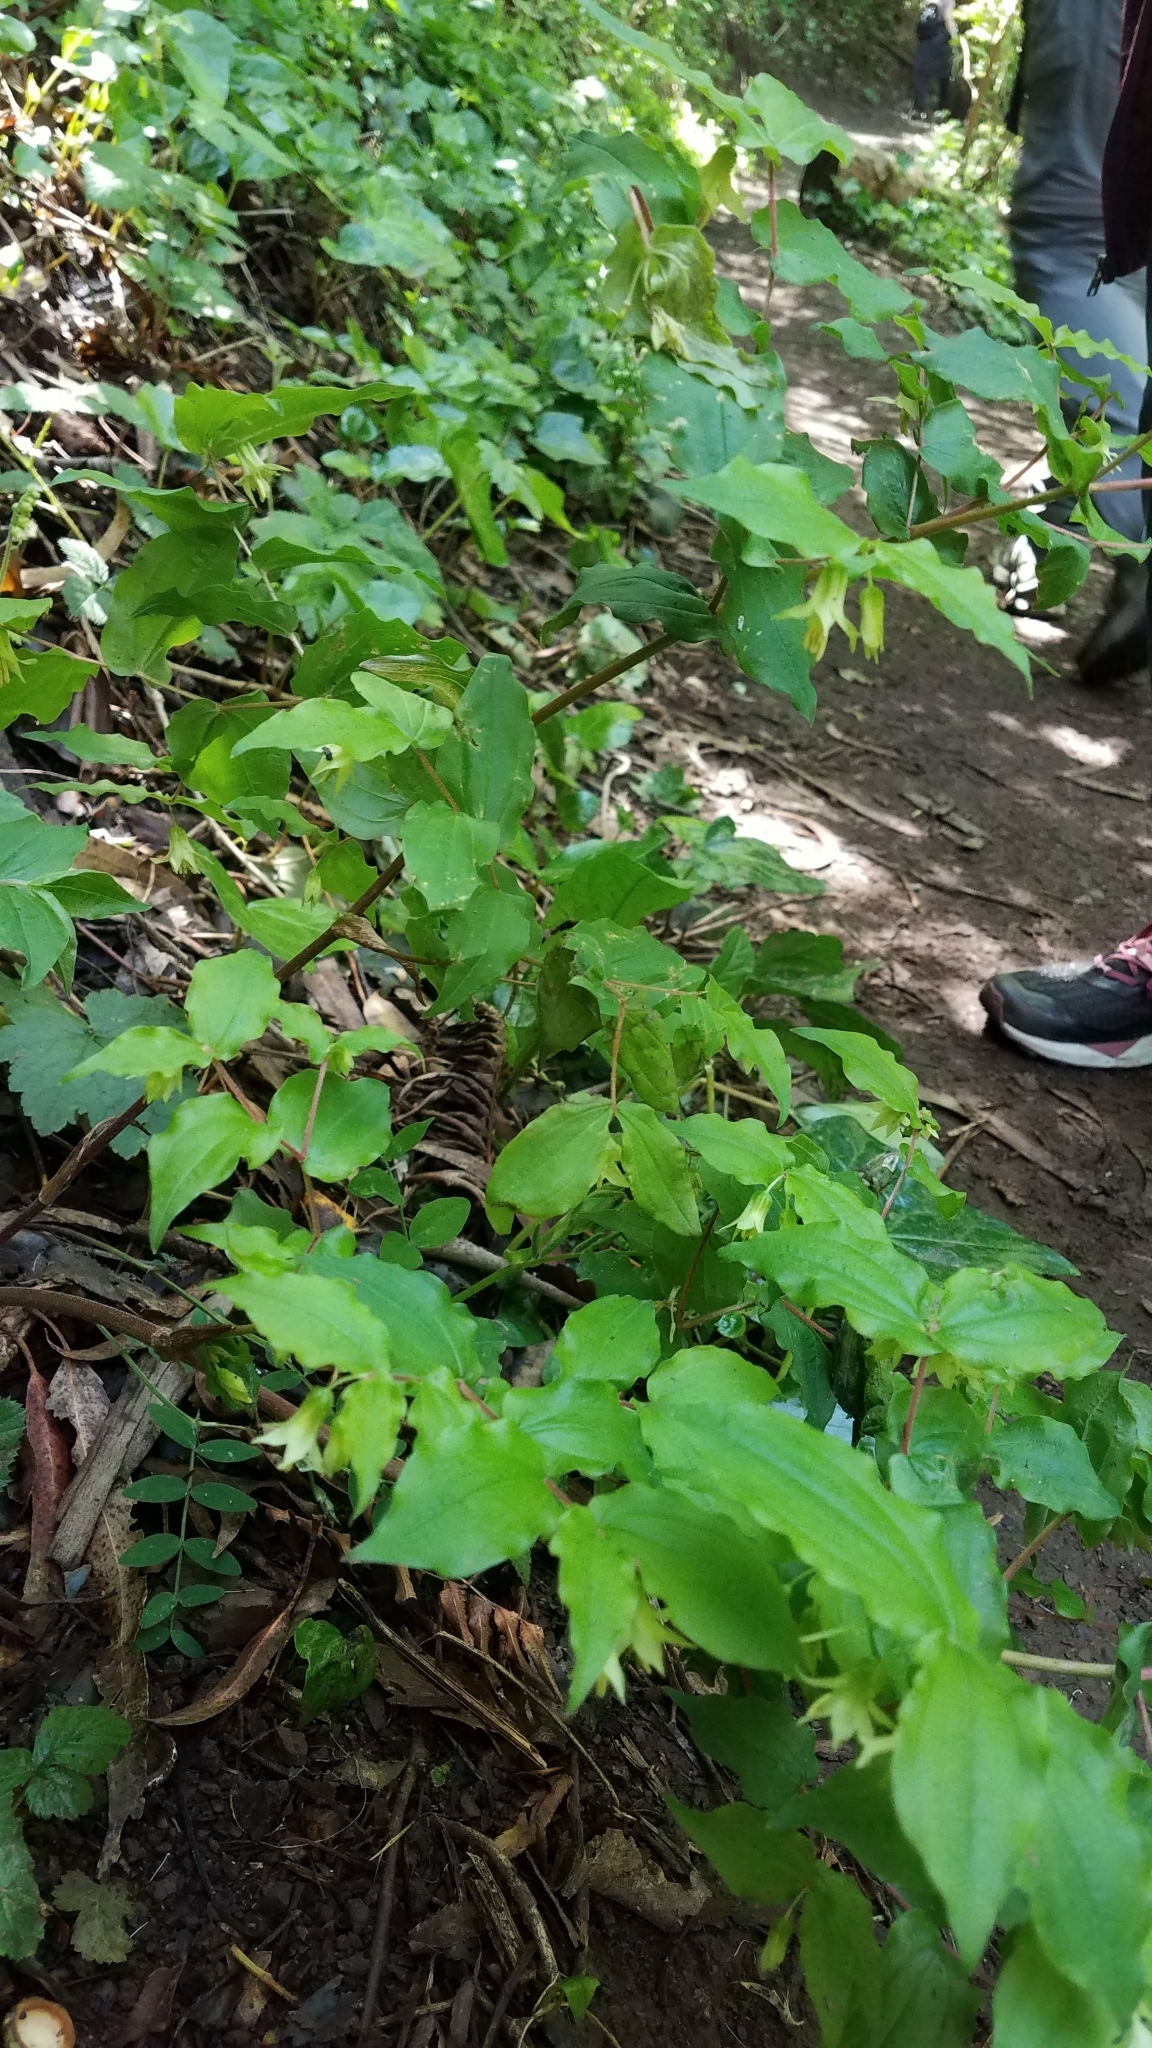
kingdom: Plantae
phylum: Tracheophyta
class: Liliopsida
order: Liliales
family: Liliaceae
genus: Prosartes
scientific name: Prosartes hookeri
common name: Fairy-bells
